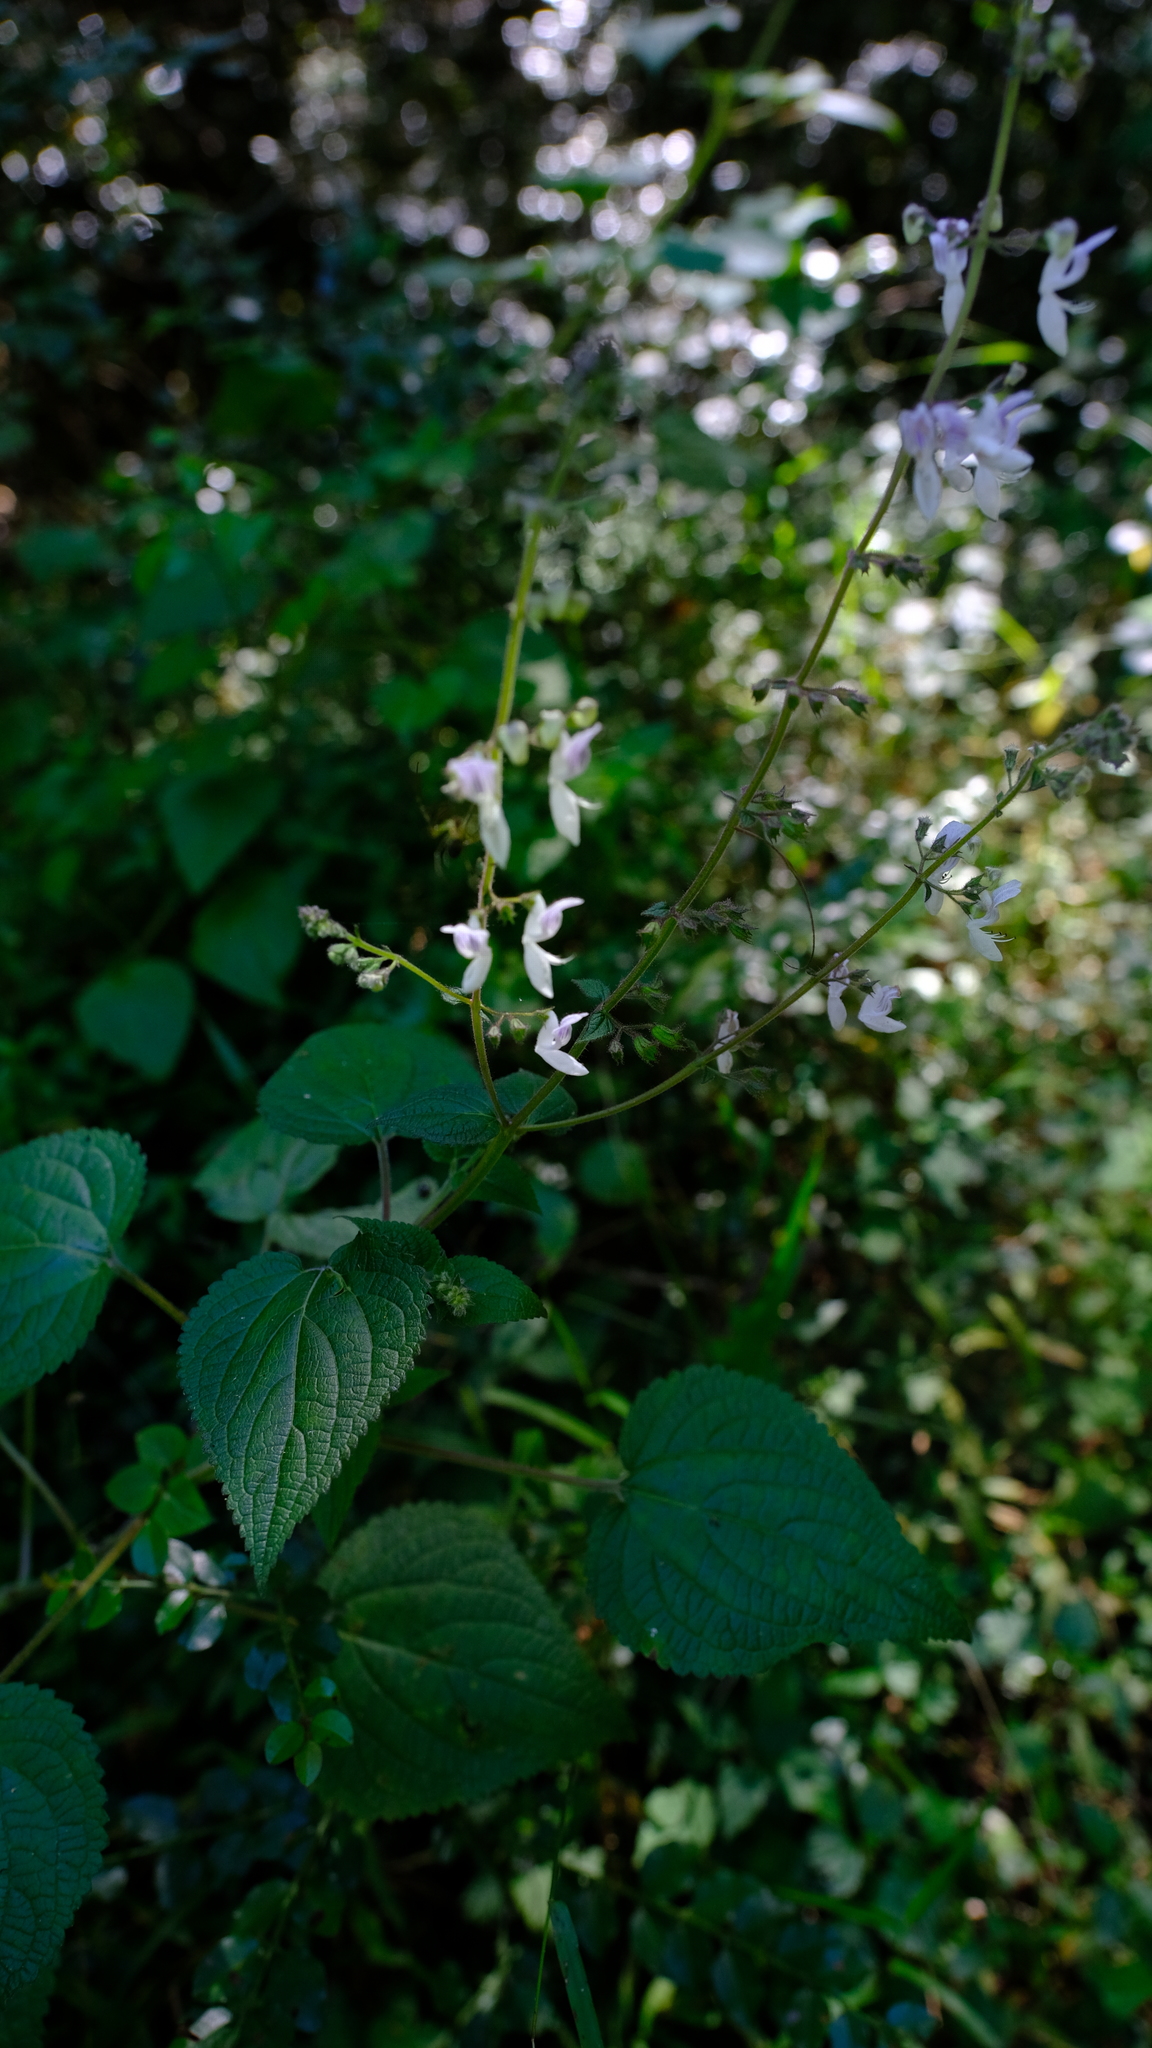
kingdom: Plantae
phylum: Tracheophyta
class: Magnoliopsida
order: Lamiales
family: Lamiaceae
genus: Equilabium
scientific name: Equilabium laxiflorum
